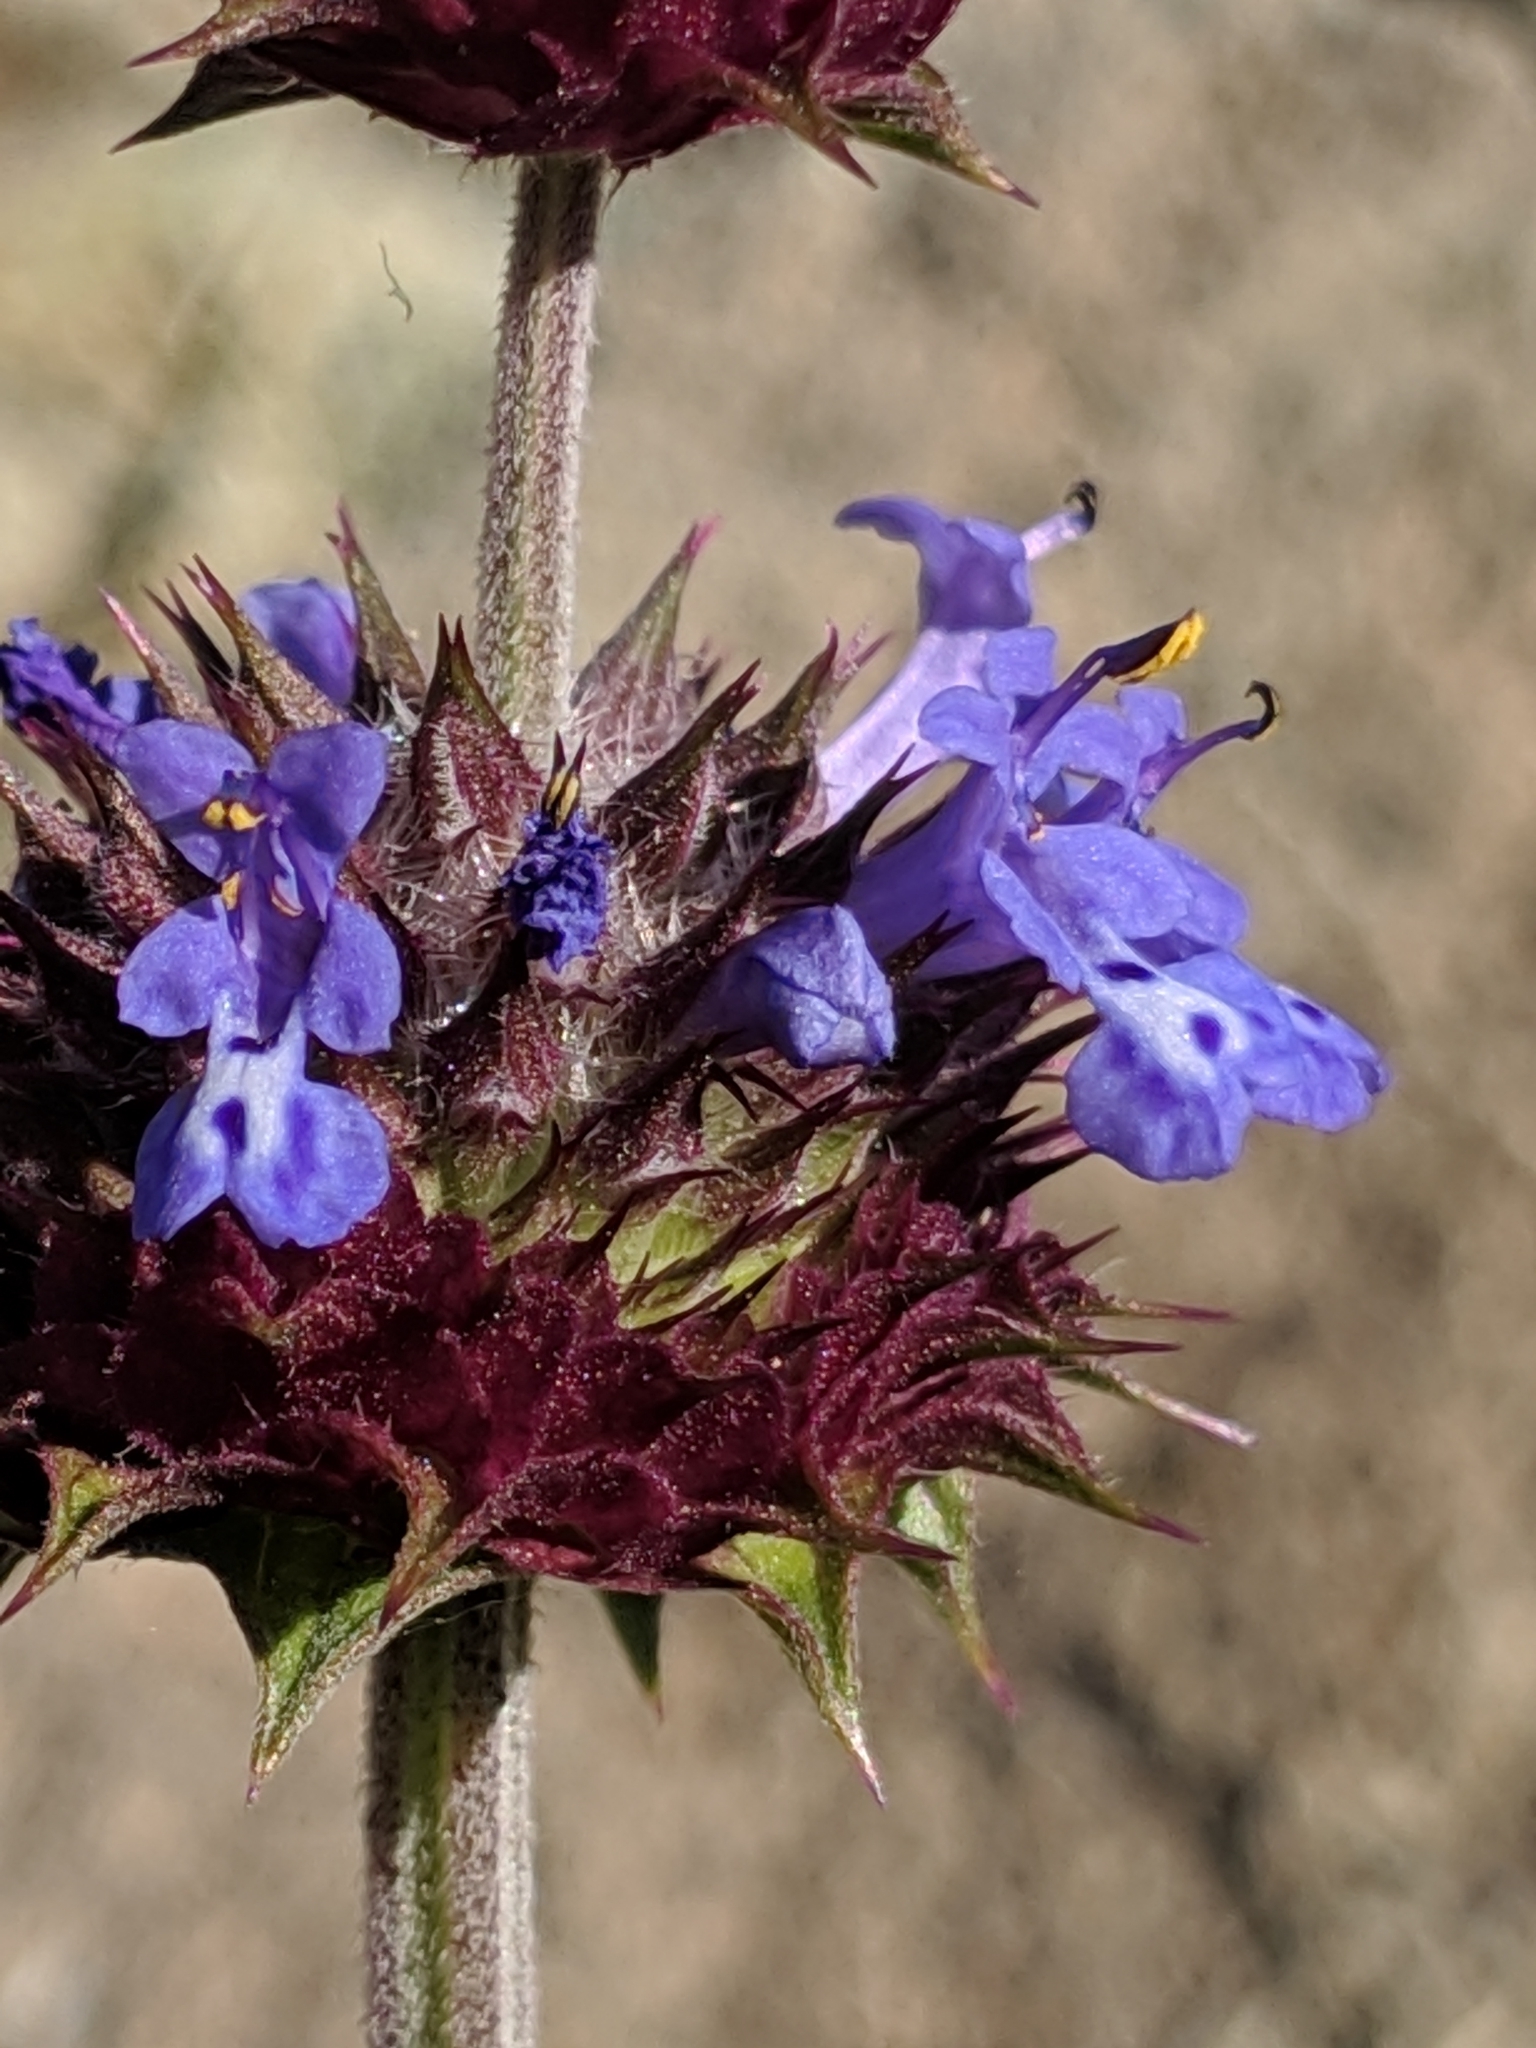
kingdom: Plantae
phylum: Tracheophyta
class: Magnoliopsida
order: Lamiales
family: Lamiaceae
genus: Salvia
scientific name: Salvia columbariae
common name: Chia
